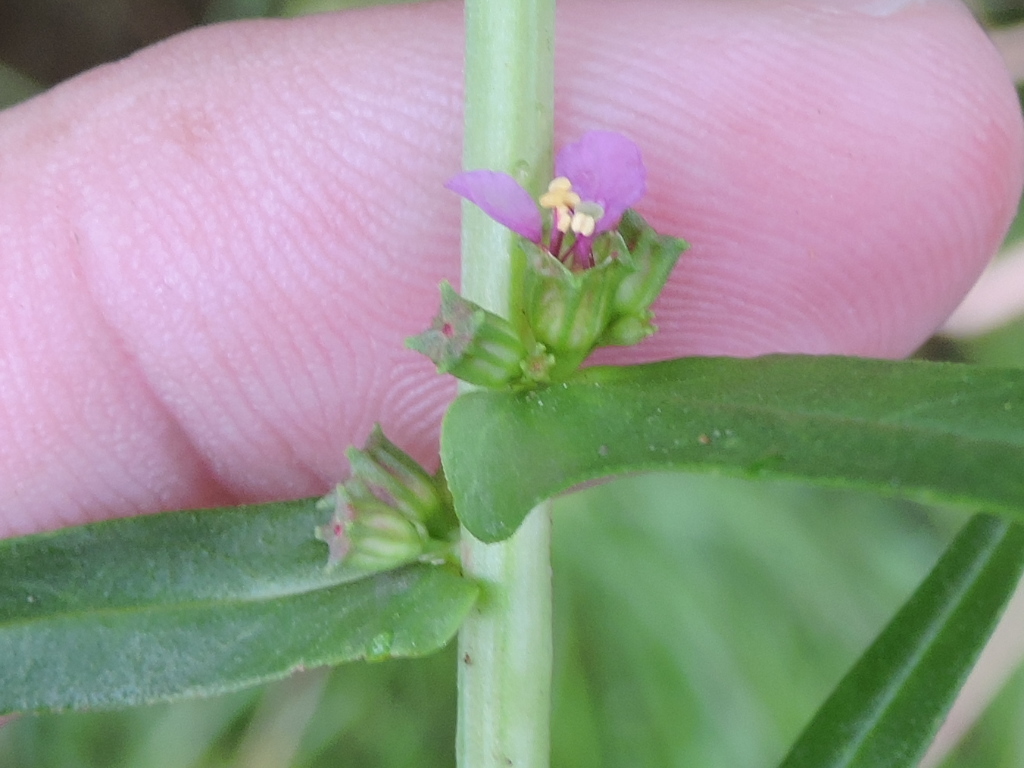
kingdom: Plantae
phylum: Tracheophyta
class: Magnoliopsida
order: Myrtales
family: Lythraceae
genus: Ammannia
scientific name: Ammannia coccinea
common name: Valley redstem
